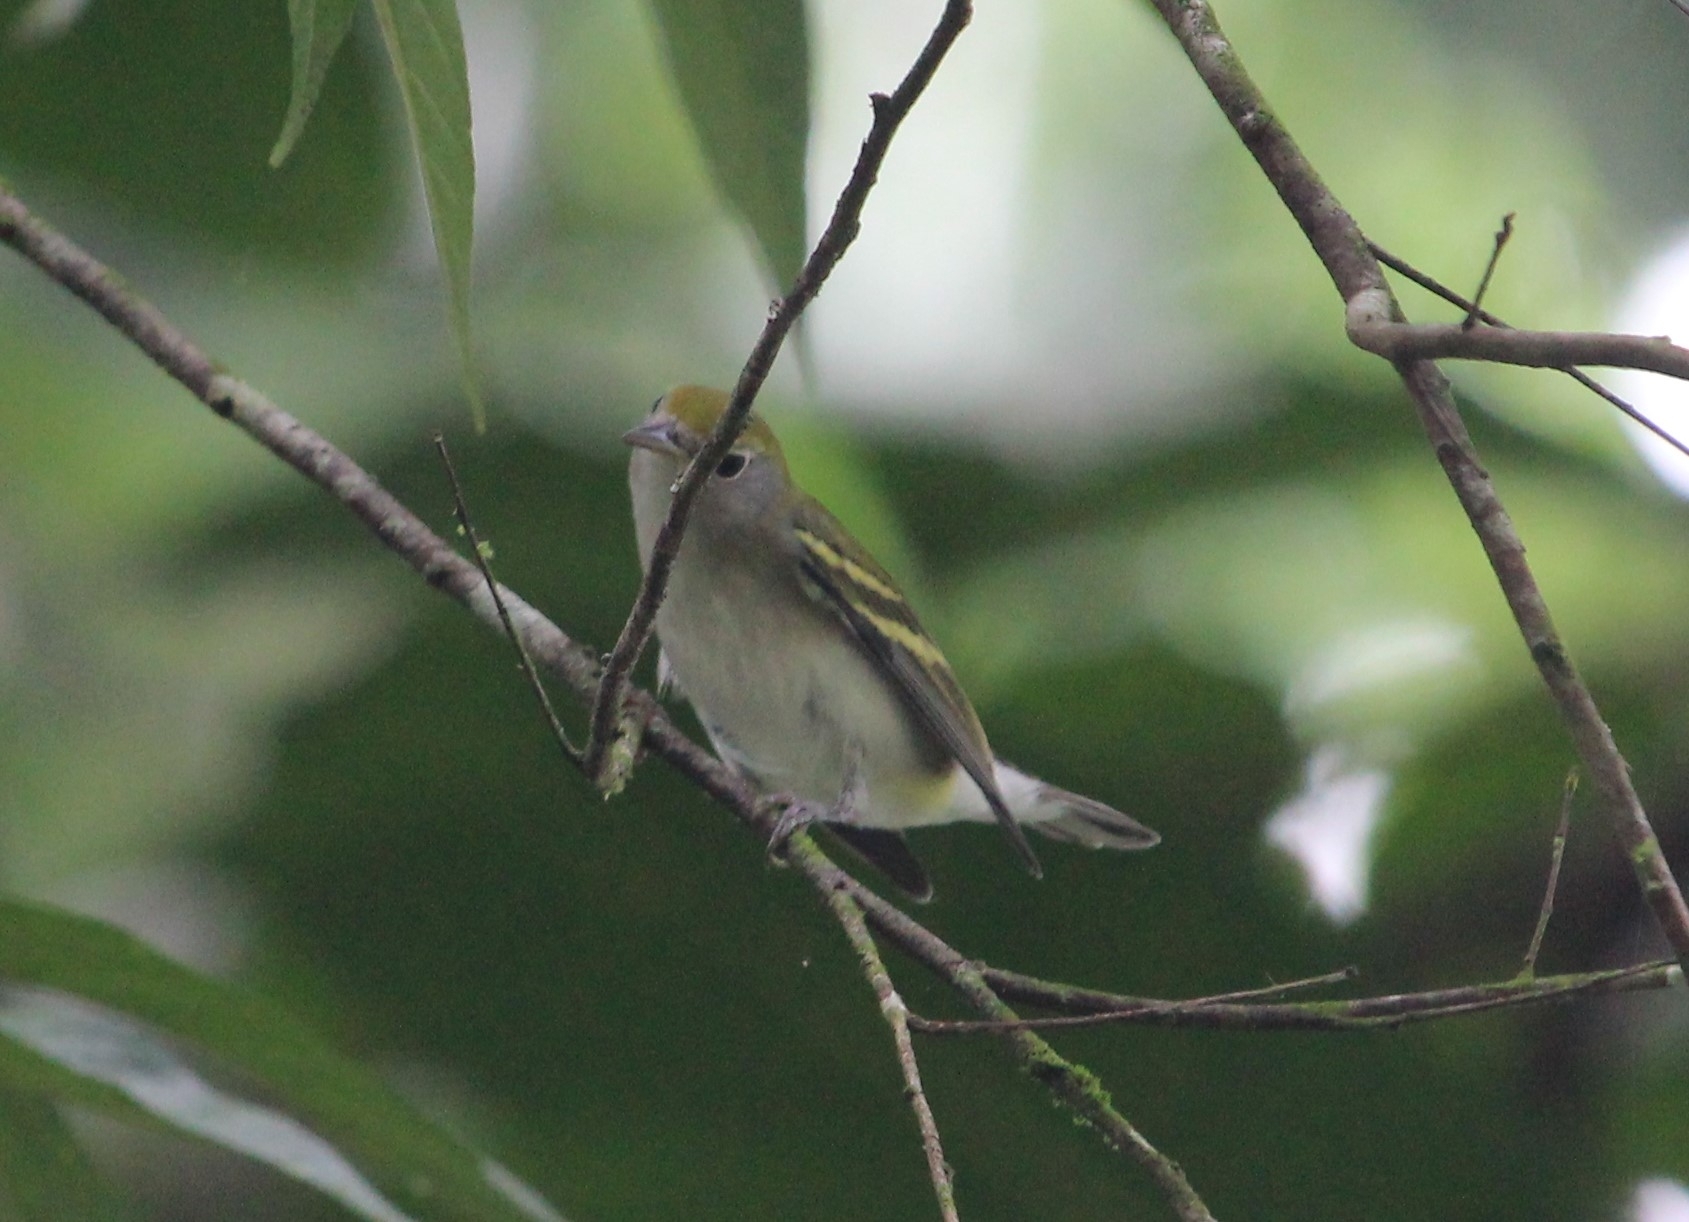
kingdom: Animalia
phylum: Chordata
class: Aves
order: Passeriformes
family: Parulidae
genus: Setophaga
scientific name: Setophaga pensylvanica
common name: Chestnut-sided warbler
